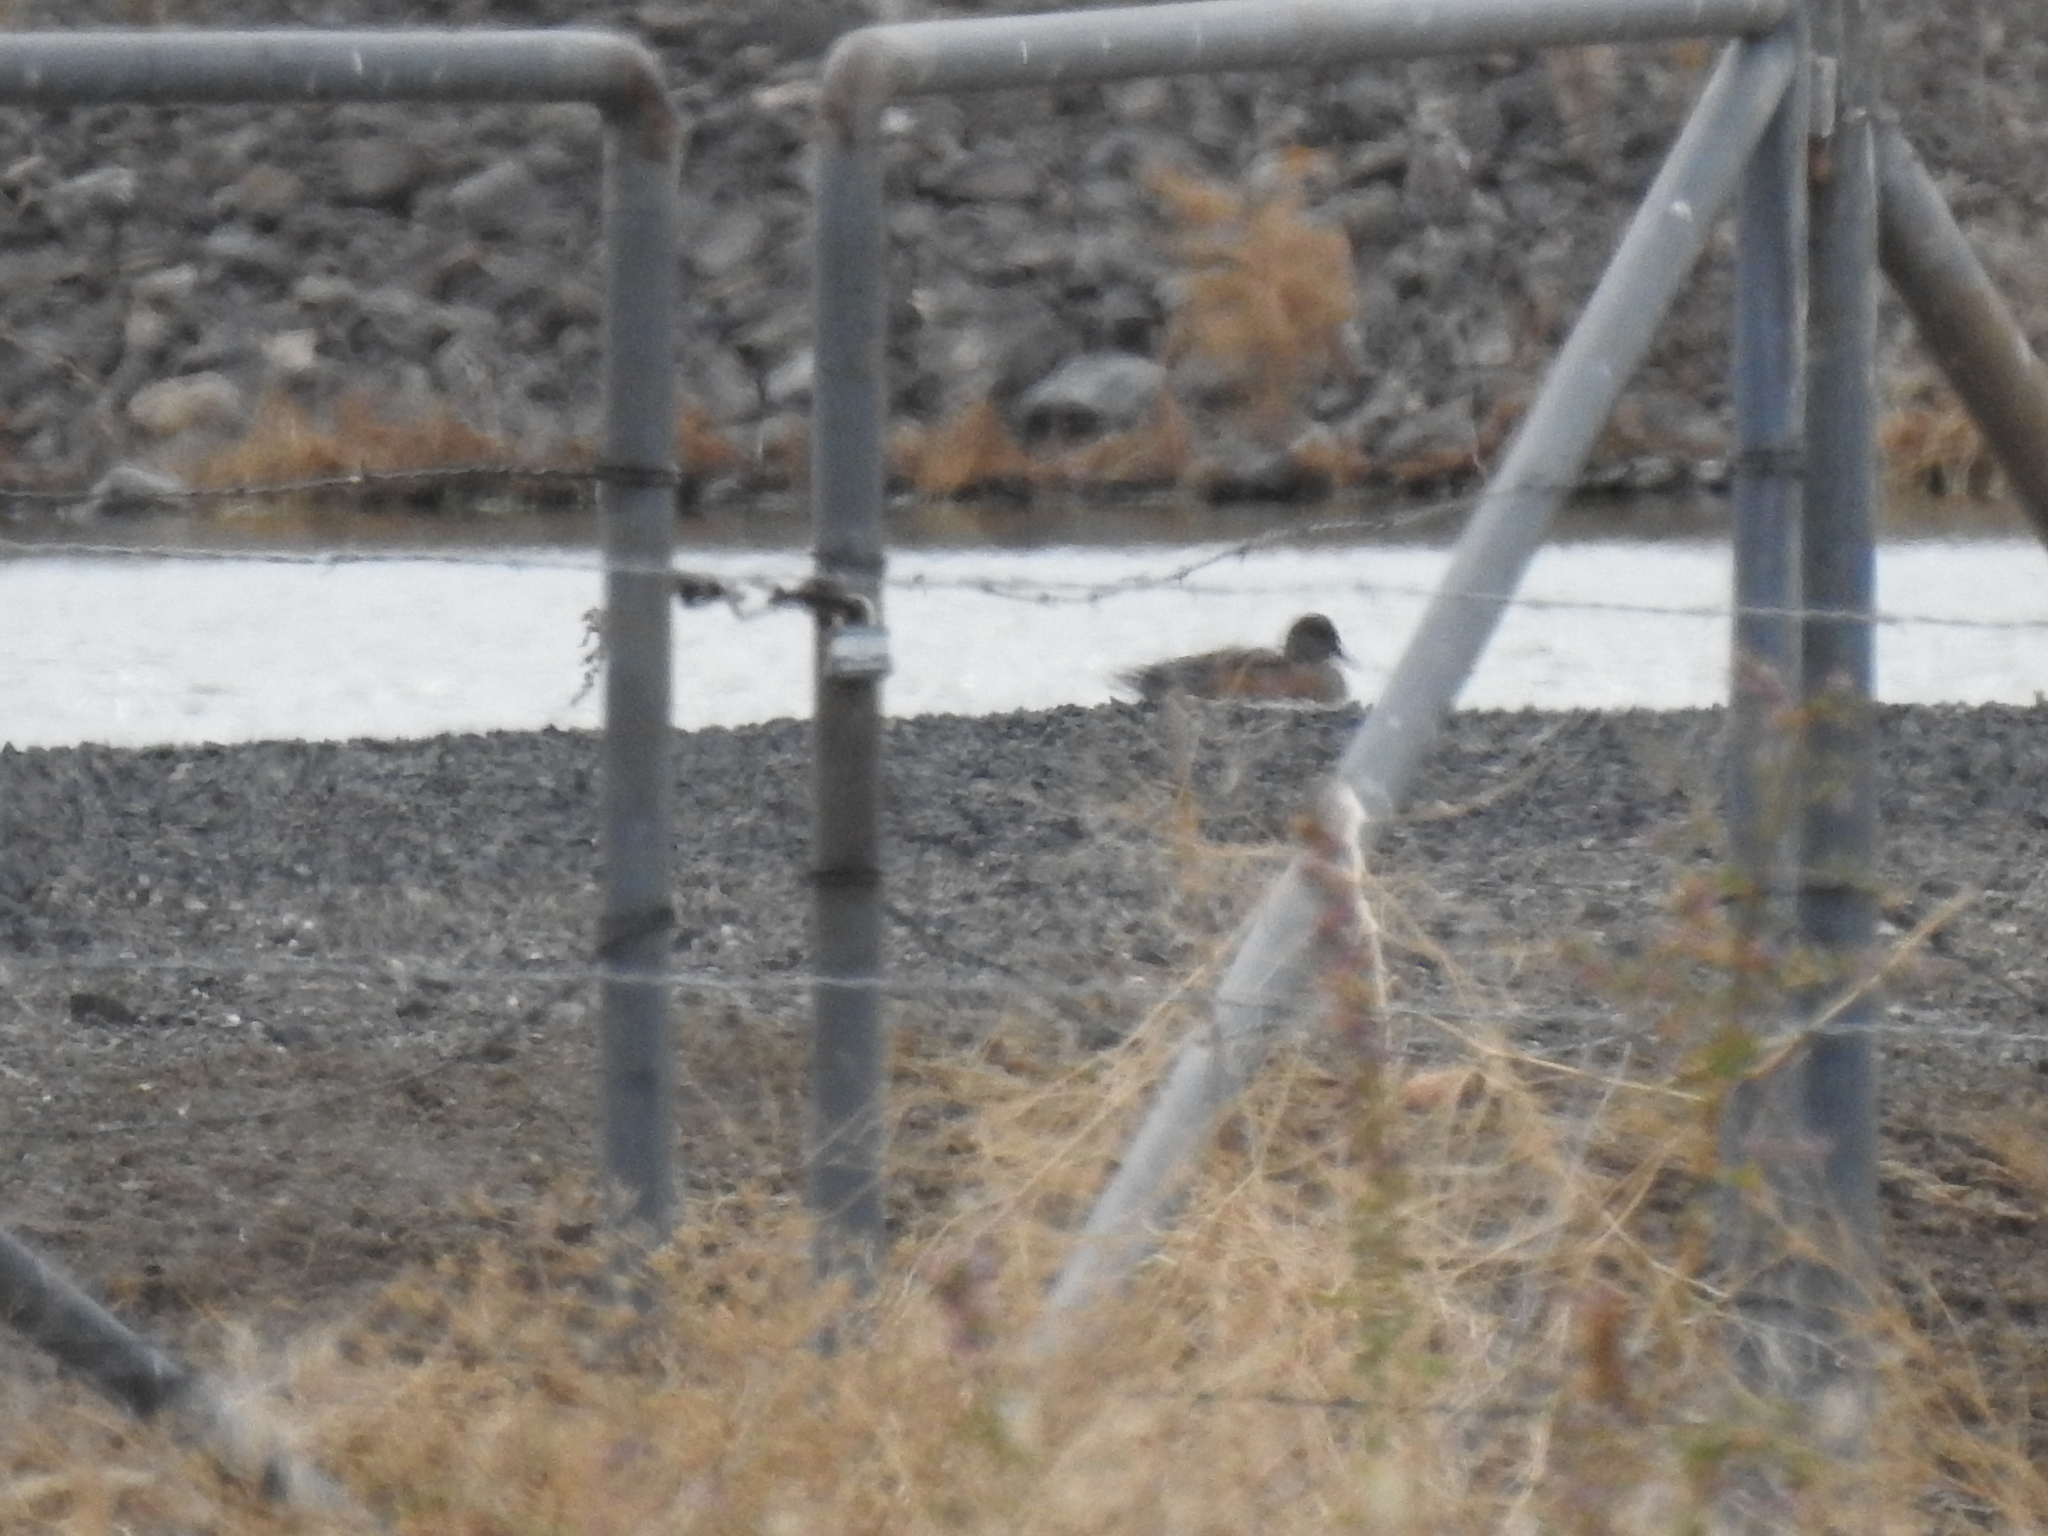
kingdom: Animalia
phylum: Chordata
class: Aves
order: Anseriformes
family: Anatidae
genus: Mareca
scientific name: Mareca americana
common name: American wigeon
